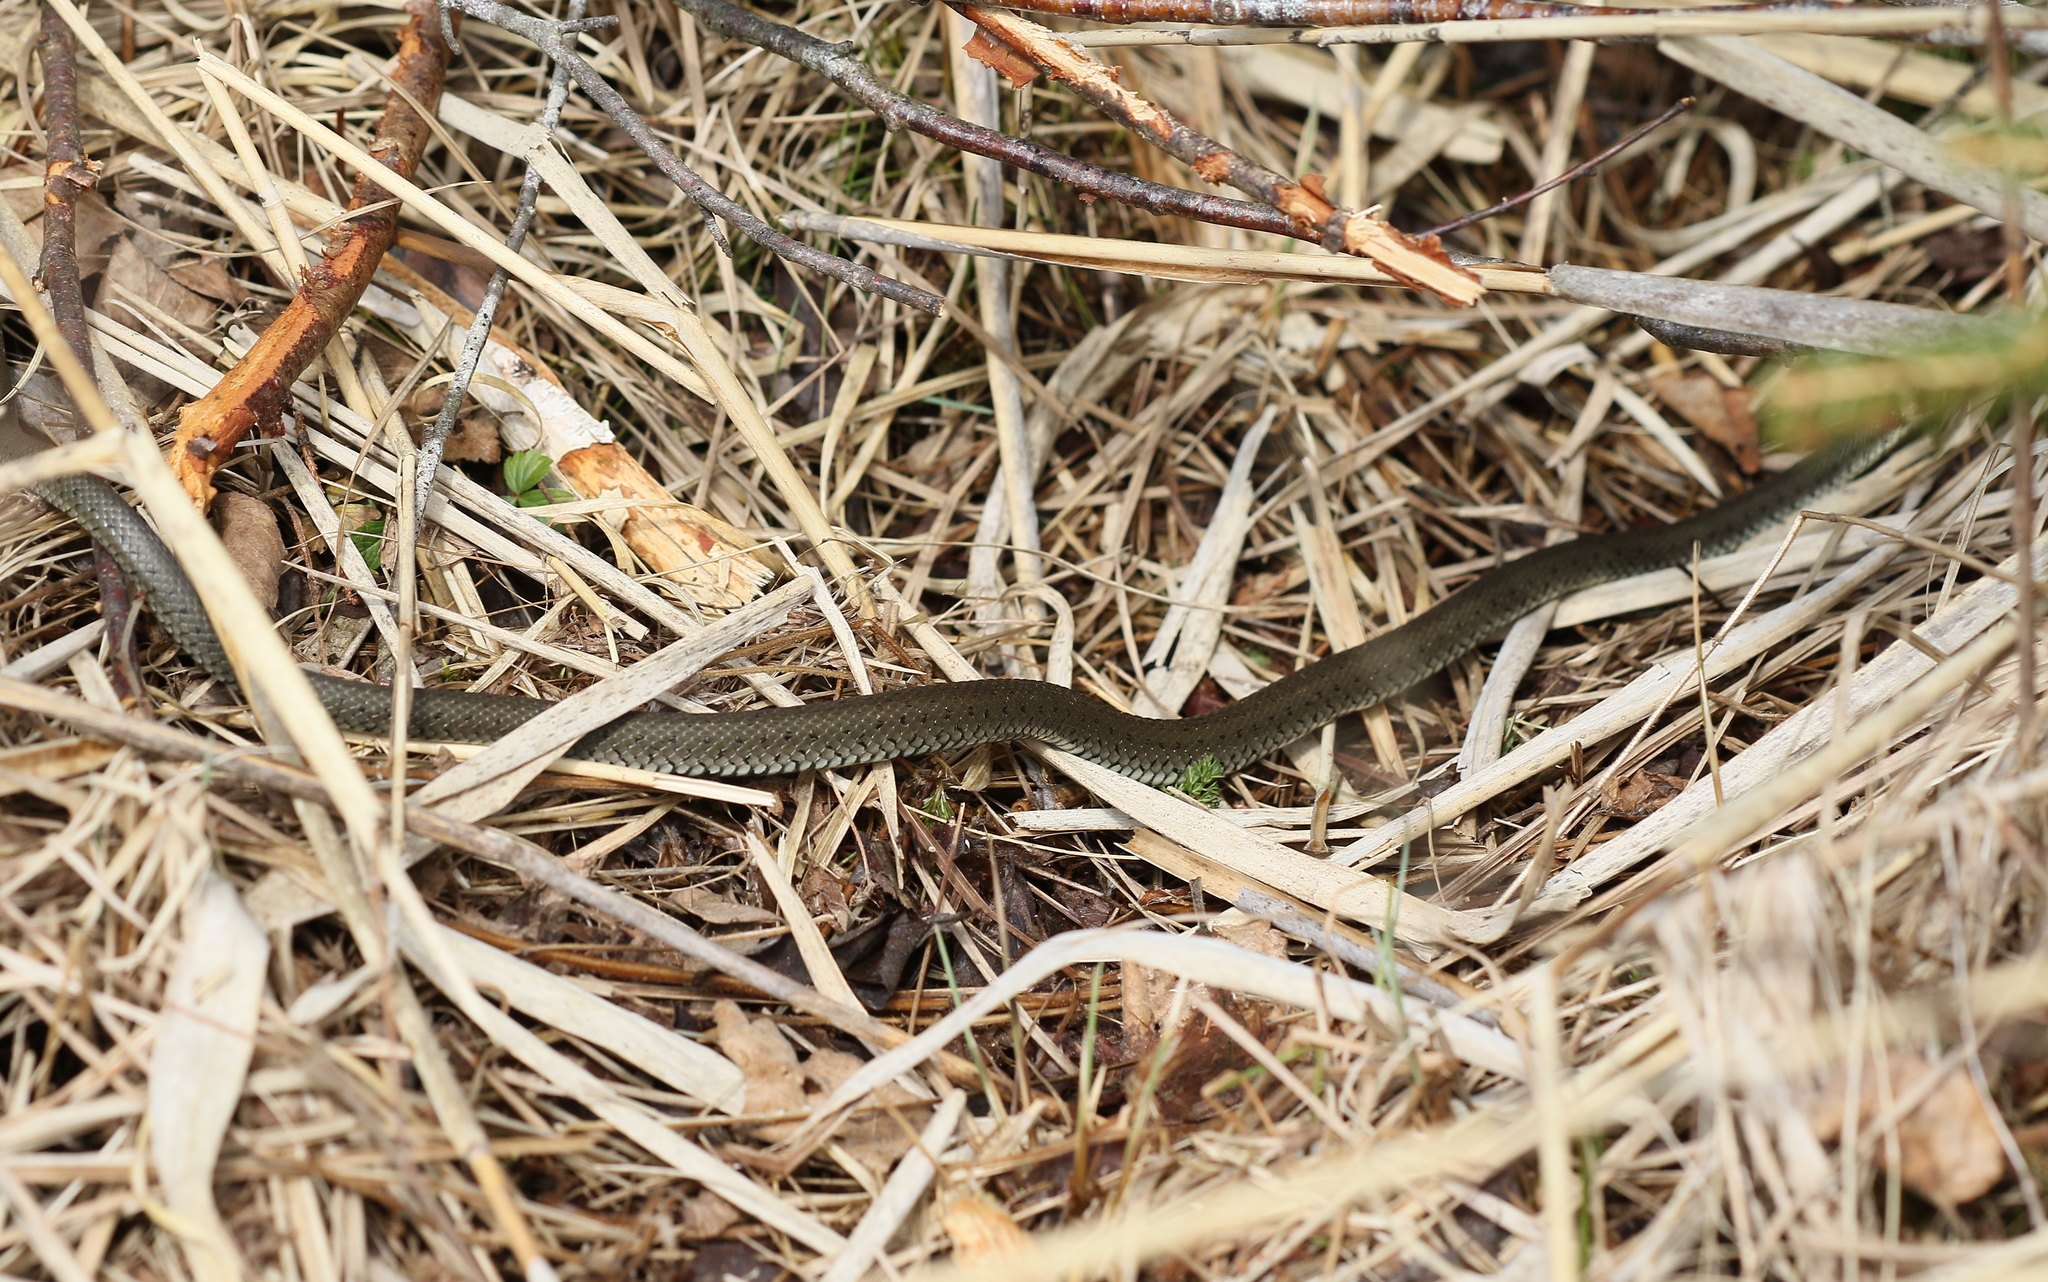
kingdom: Animalia
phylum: Chordata
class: Squamata
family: Colubridae
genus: Natrix
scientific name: Natrix natrix
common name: Grass snake
